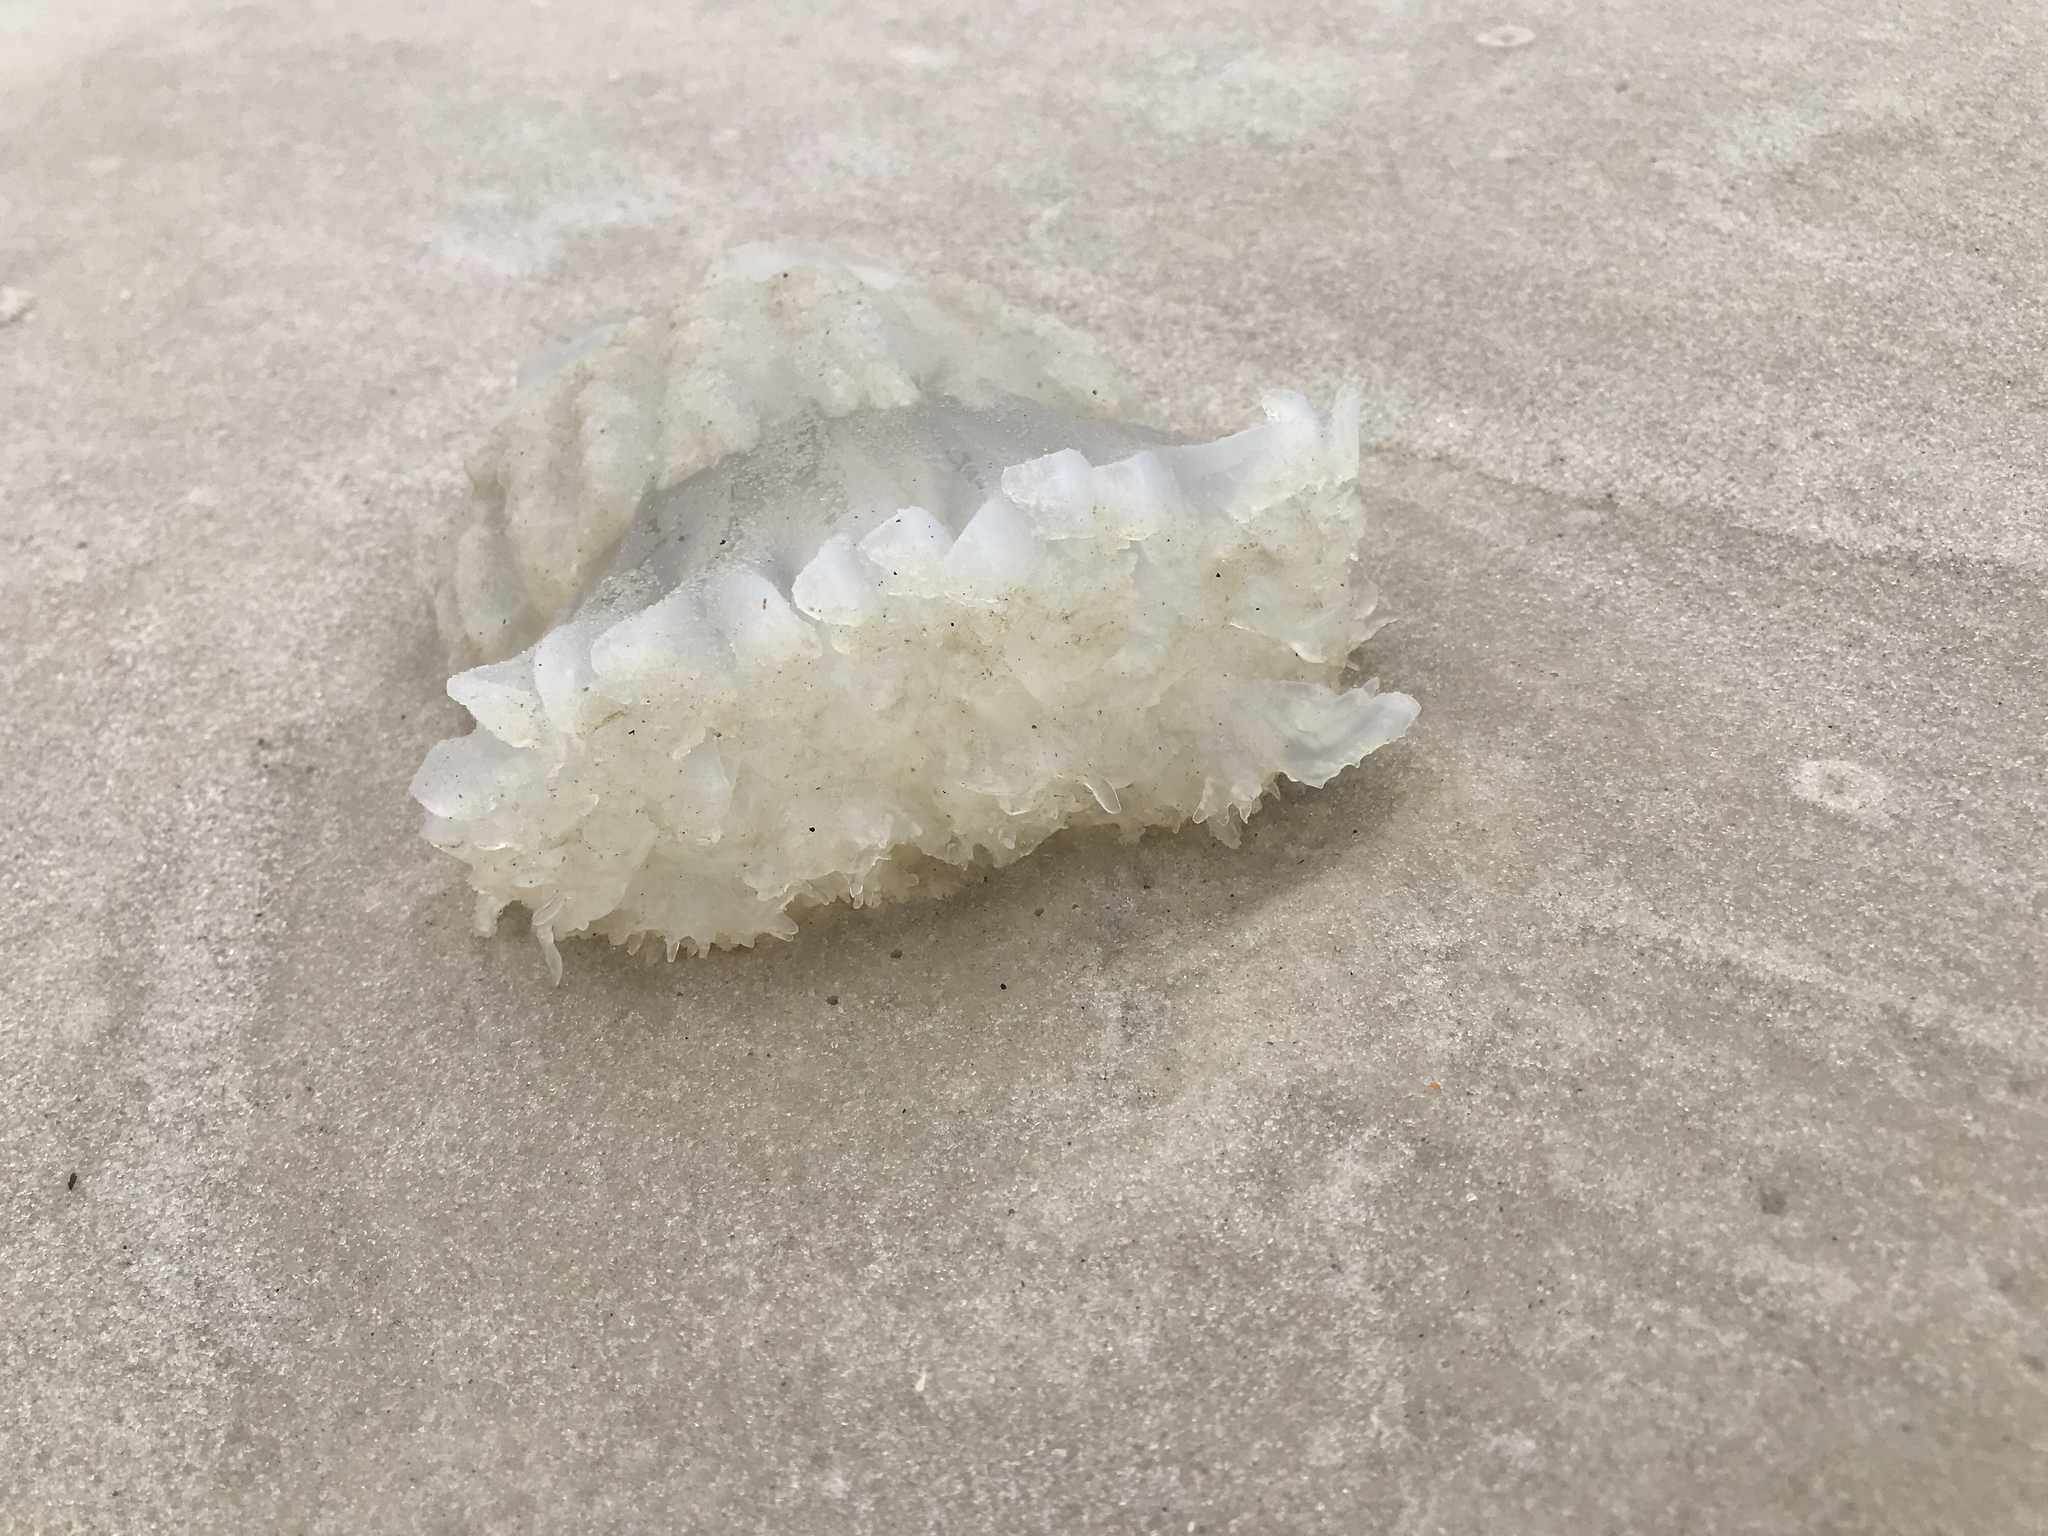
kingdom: Animalia
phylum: Cnidaria
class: Scyphozoa
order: Rhizostomeae
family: Stomolophidae
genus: Stomolophus
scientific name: Stomolophus meleagris
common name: Cabbagehead
